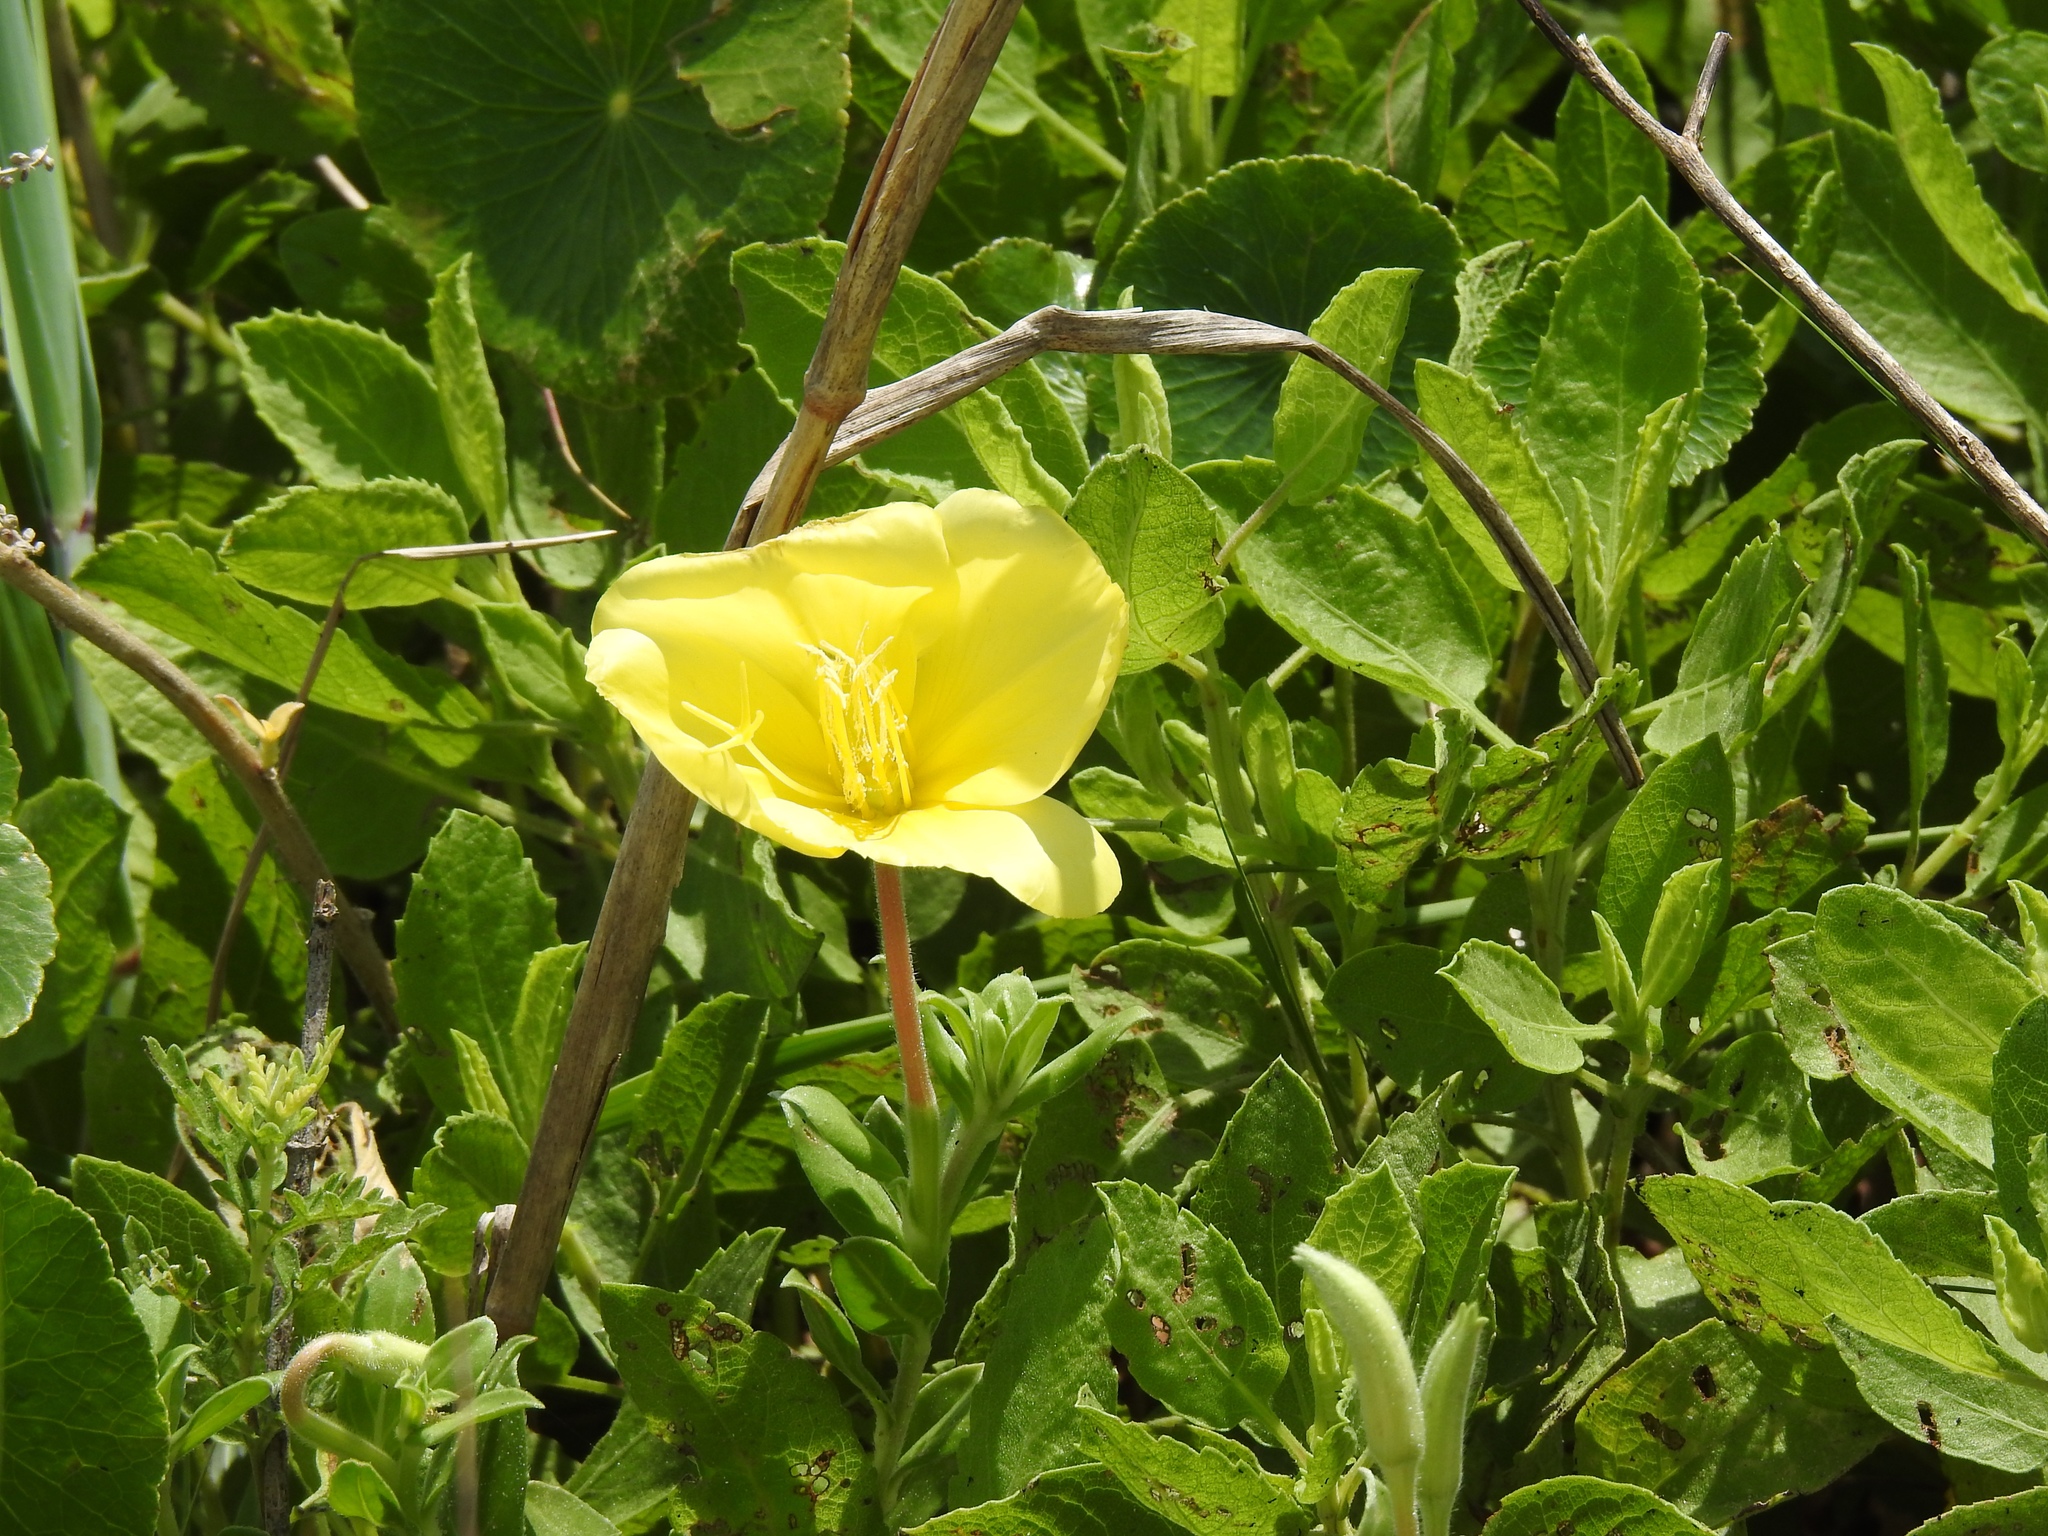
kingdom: Plantae
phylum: Tracheophyta
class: Magnoliopsida
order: Myrtales
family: Onagraceae
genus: Oenothera
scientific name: Oenothera drummondii
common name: Beach evening-primrose
